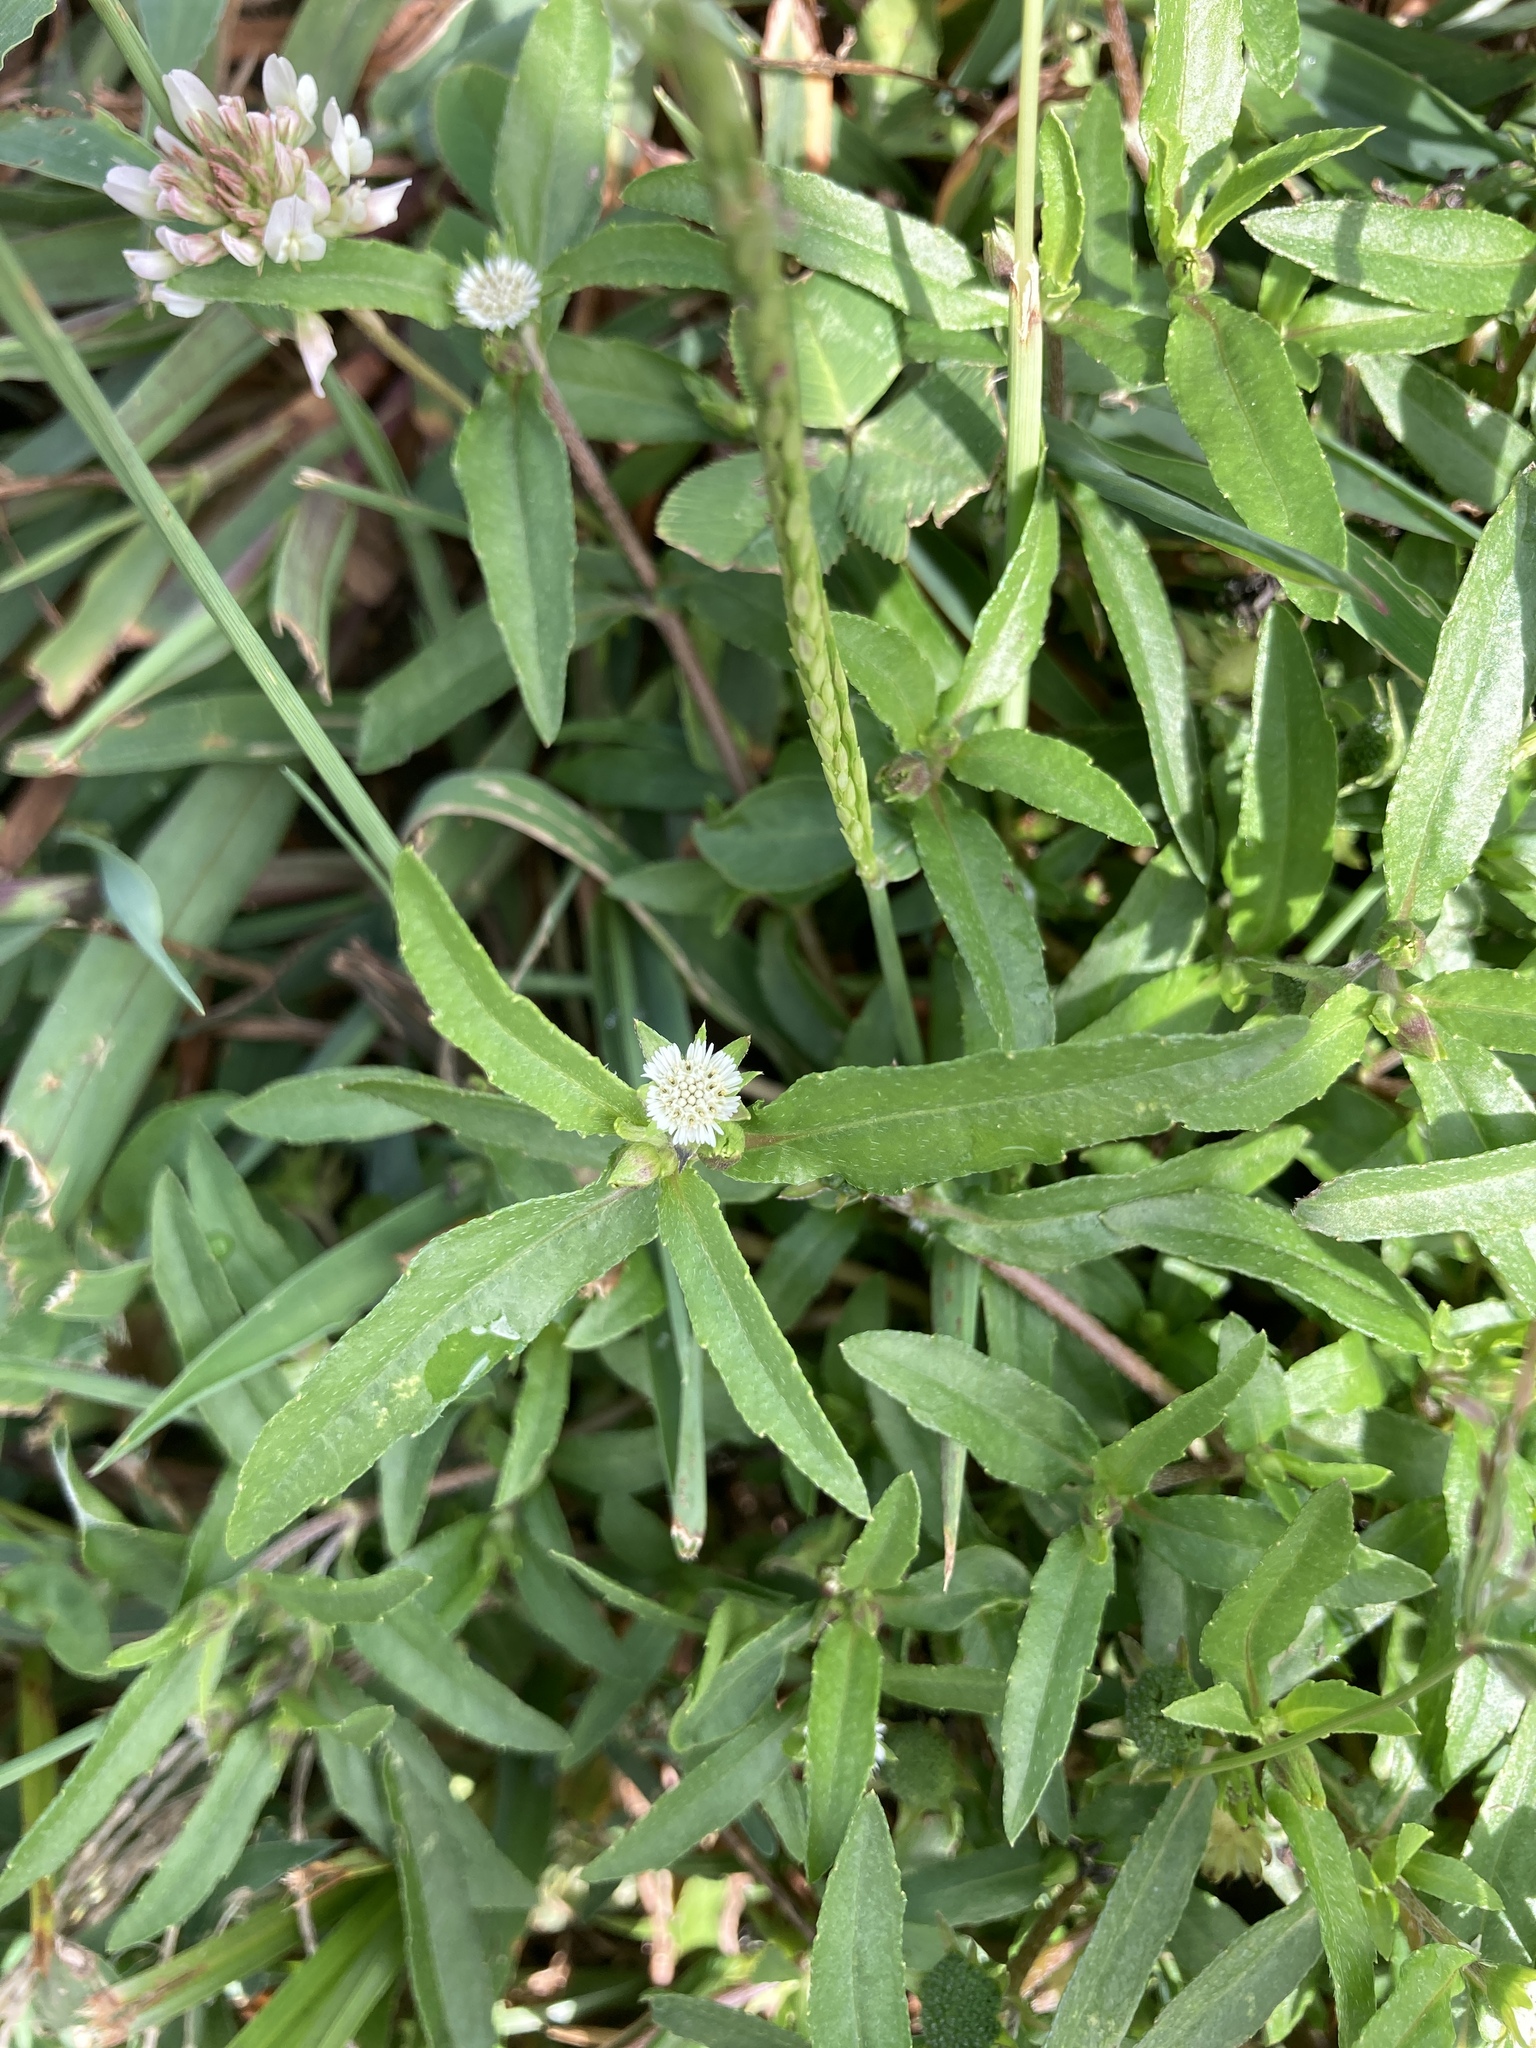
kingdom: Plantae
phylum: Tracheophyta
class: Magnoliopsida
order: Asterales
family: Asteraceae
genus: Eclipta
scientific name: Eclipta prostrata
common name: False daisy
